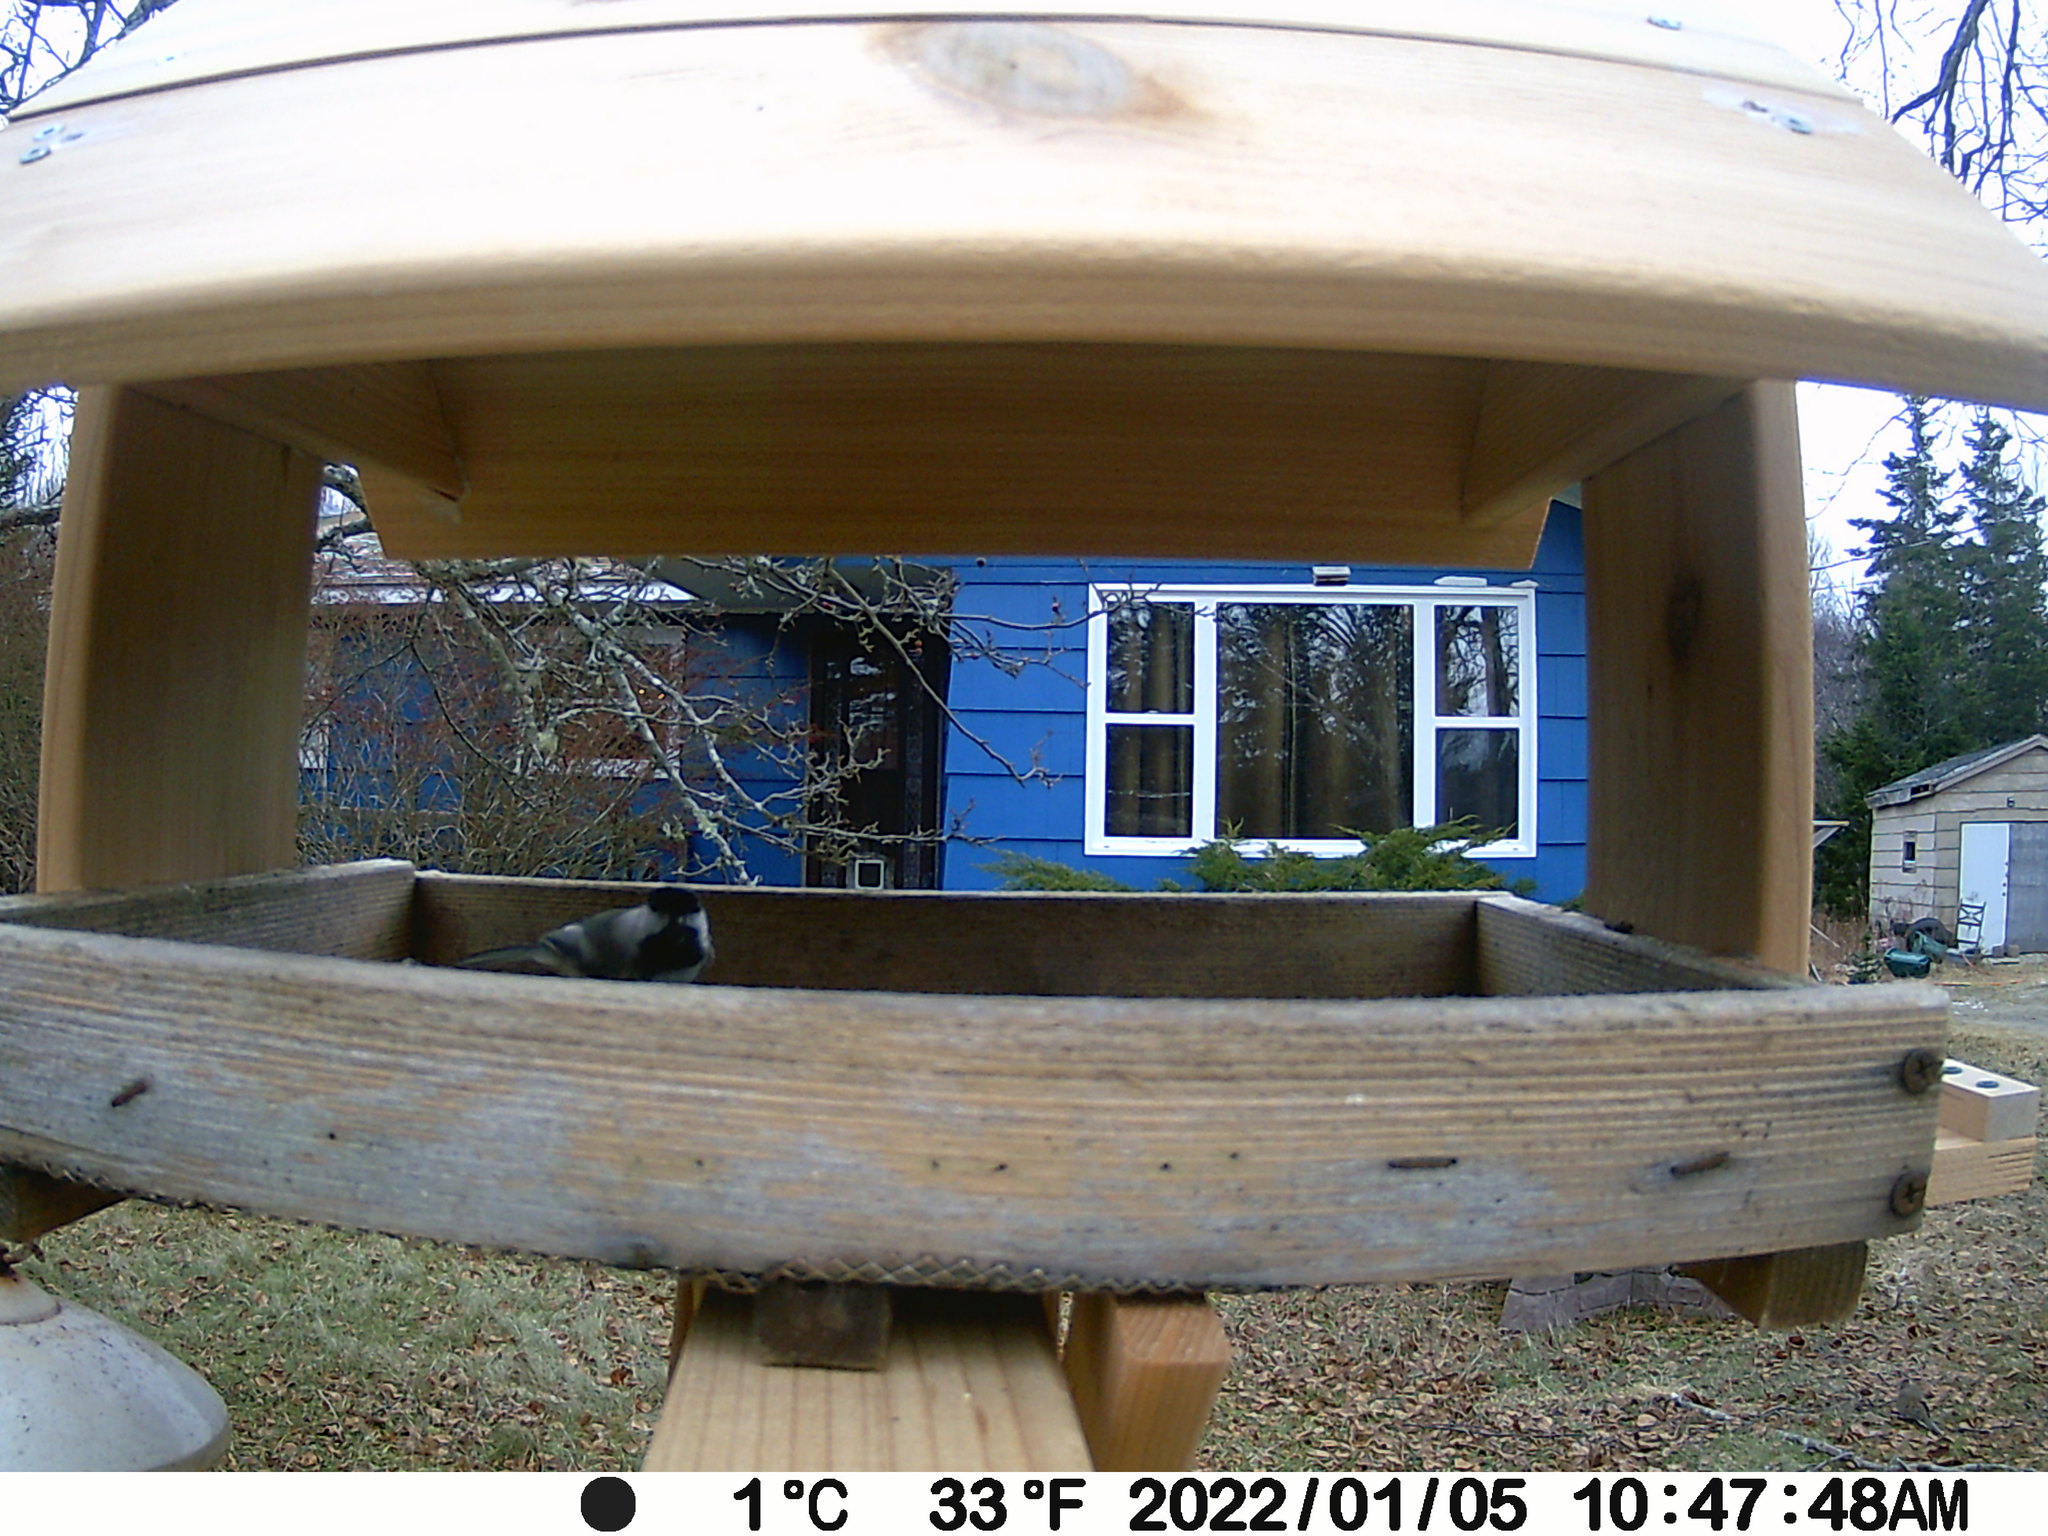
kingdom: Animalia
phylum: Chordata
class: Aves
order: Columbiformes
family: Columbidae
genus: Zenaida
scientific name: Zenaida macroura
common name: Mourning dove
